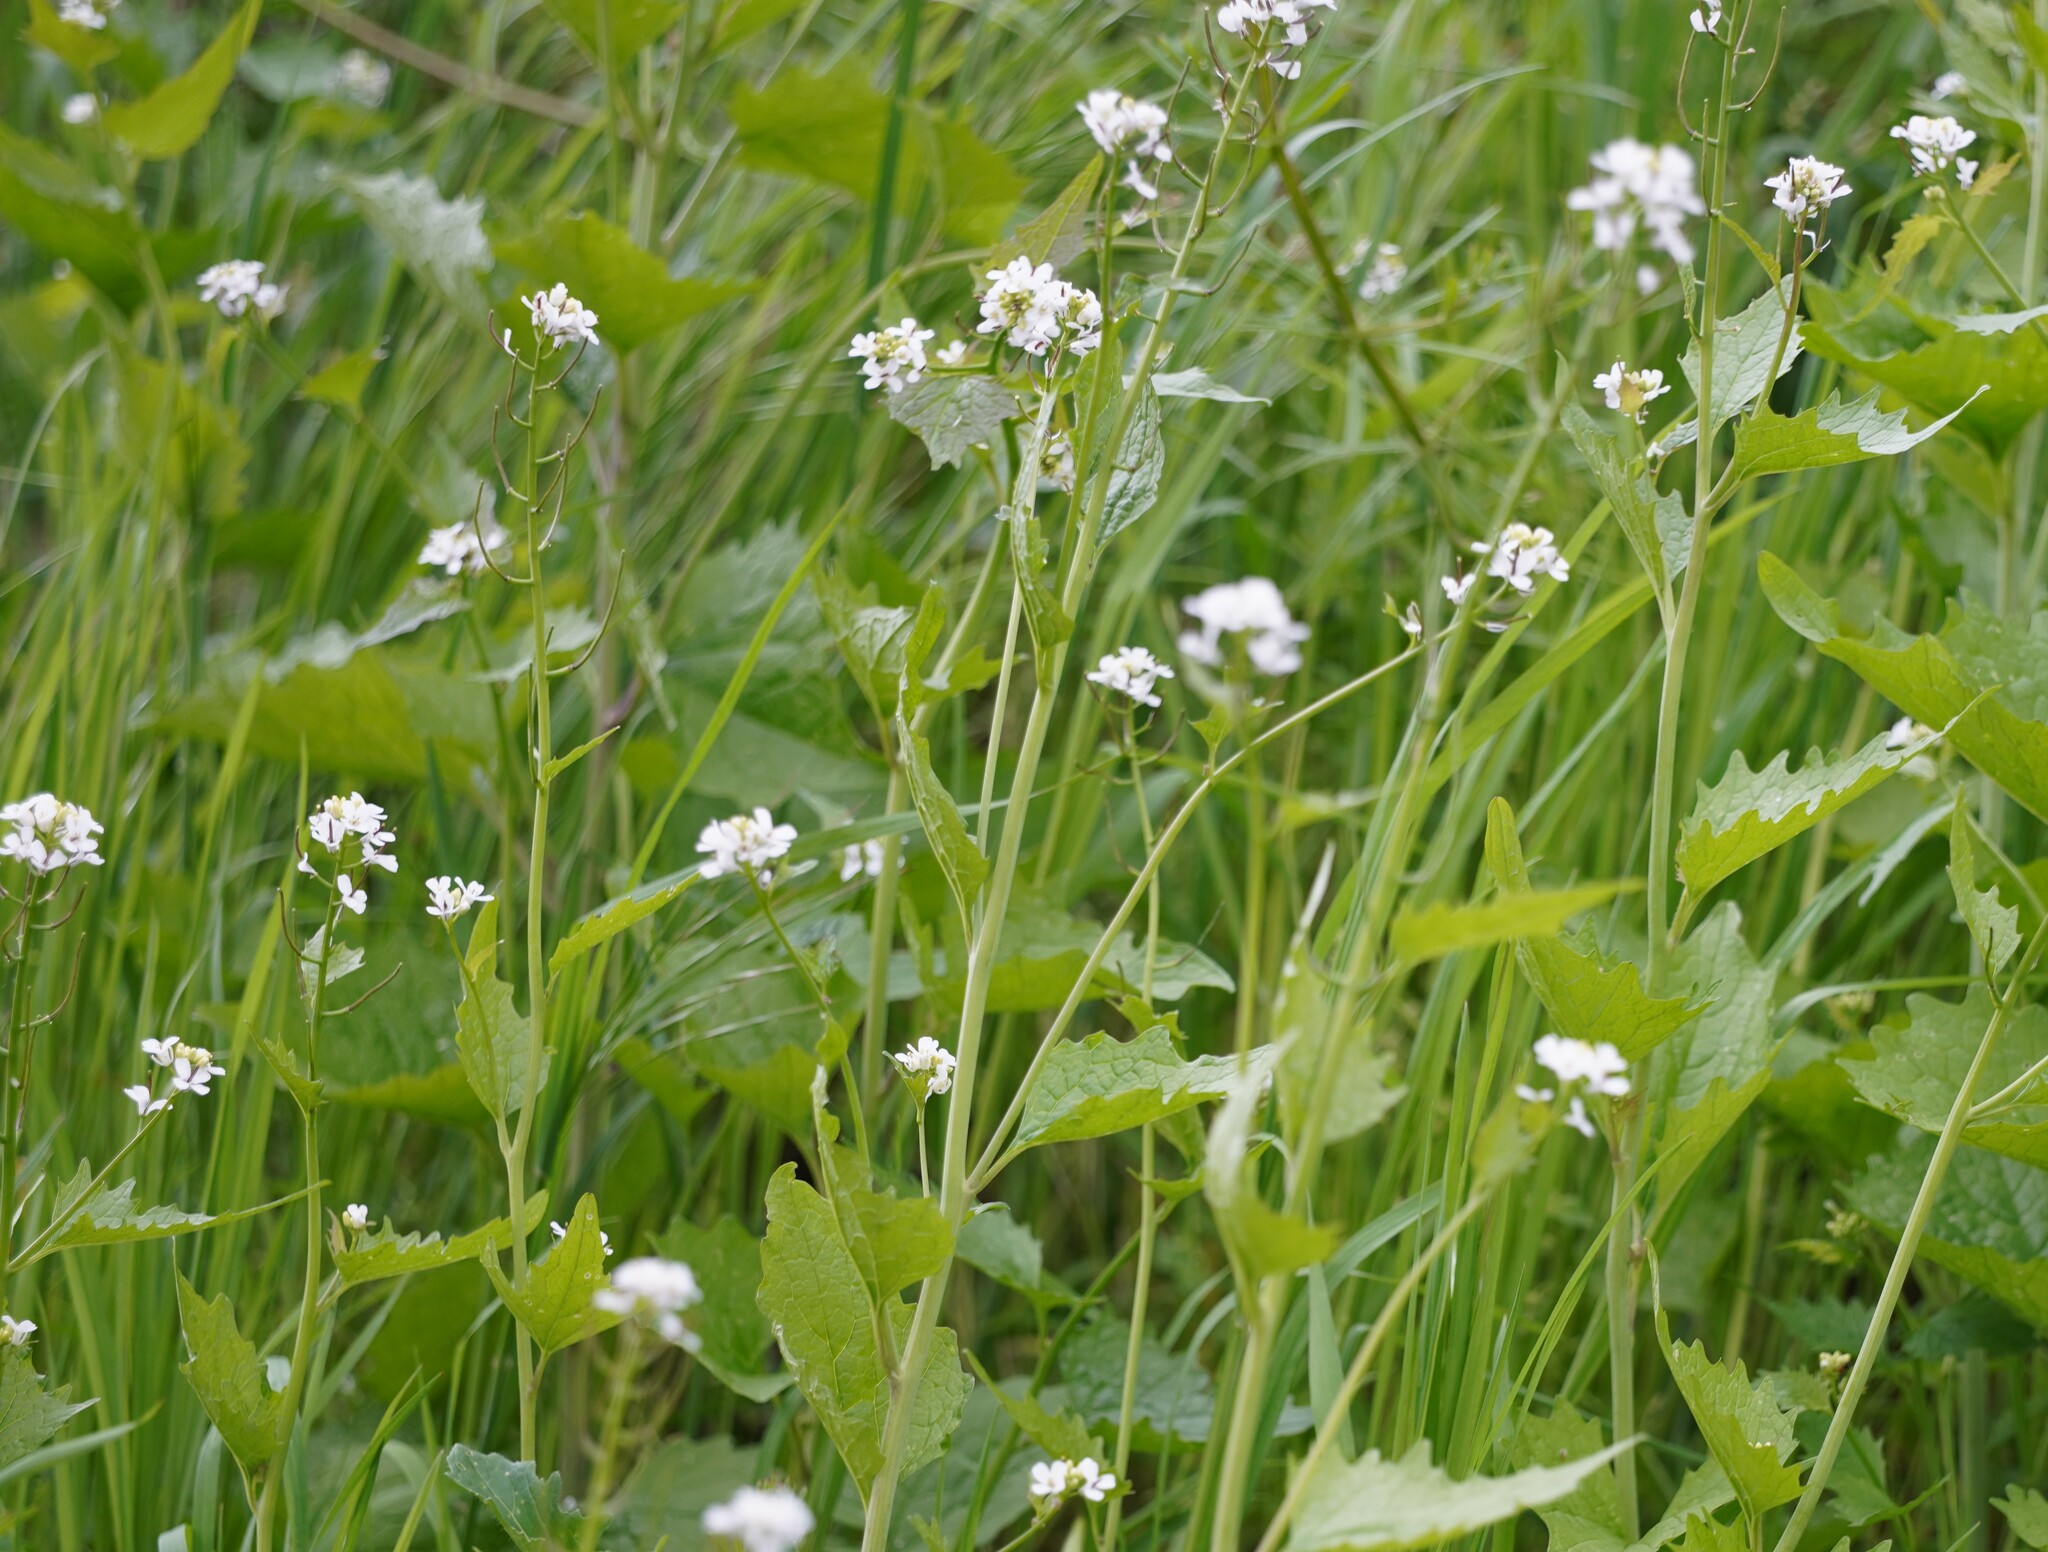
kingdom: Plantae
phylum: Tracheophyta
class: Magnoliopsida
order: Brassicales
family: Brassicaceae
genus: Alliaria
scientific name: Alliaria petiolata
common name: Garlic mustard
